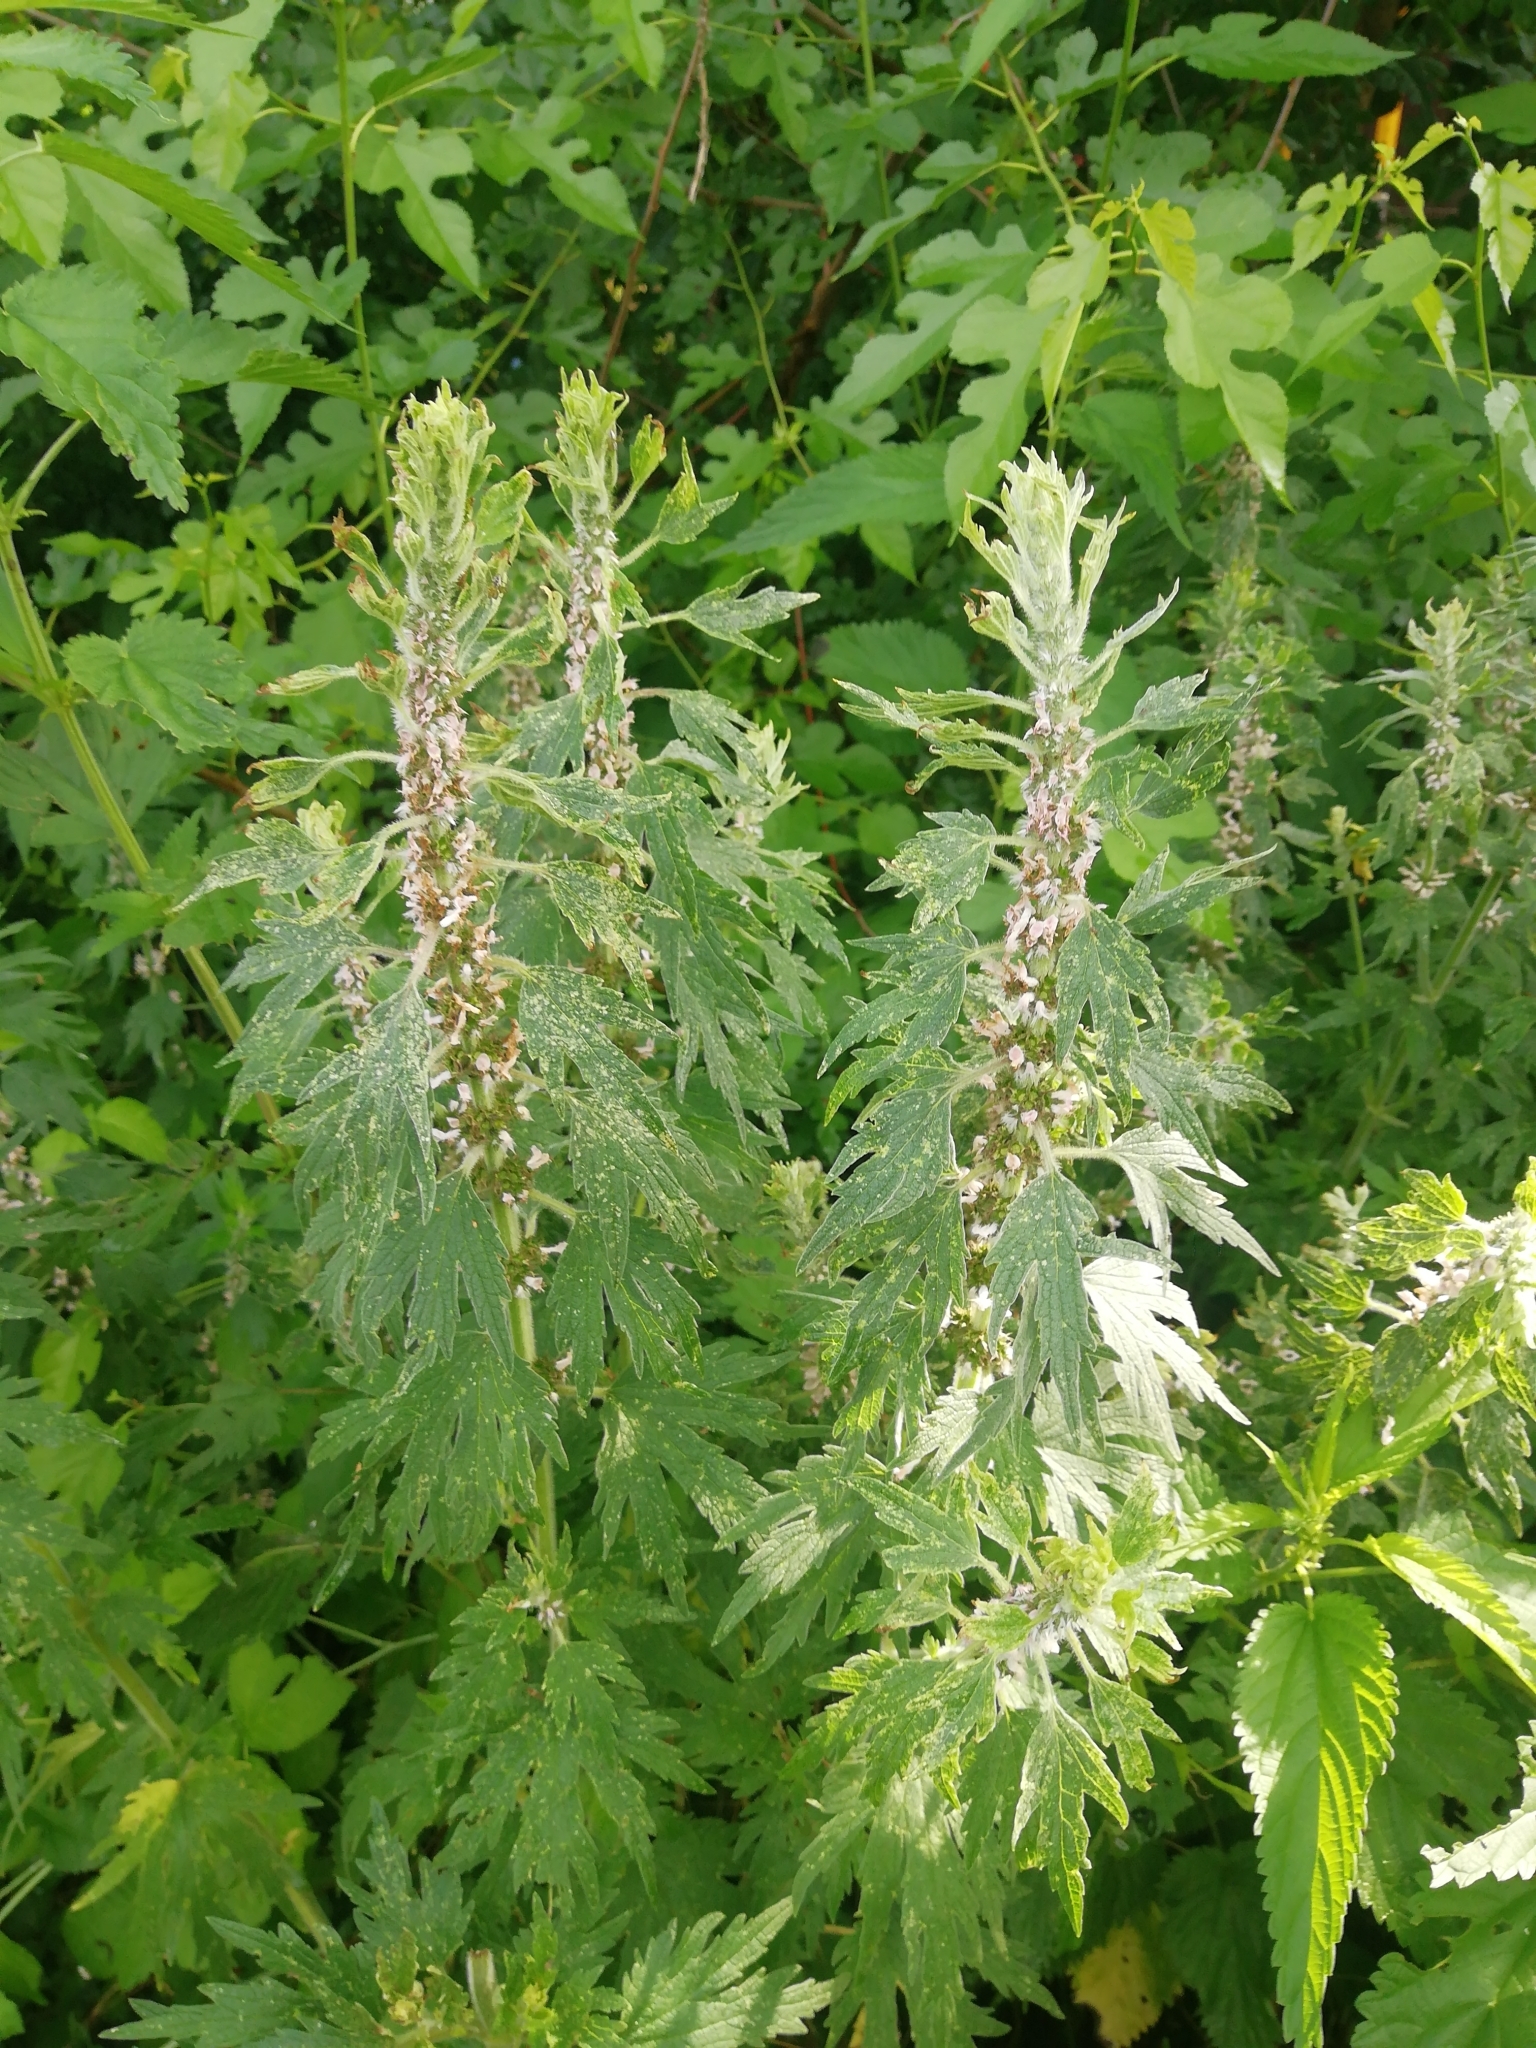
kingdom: Plantae
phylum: Tracheophyta
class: Magnoliopsida
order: Lamiales
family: Lamiaceae
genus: Leonurus
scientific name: Leonurus quinquelobatus
